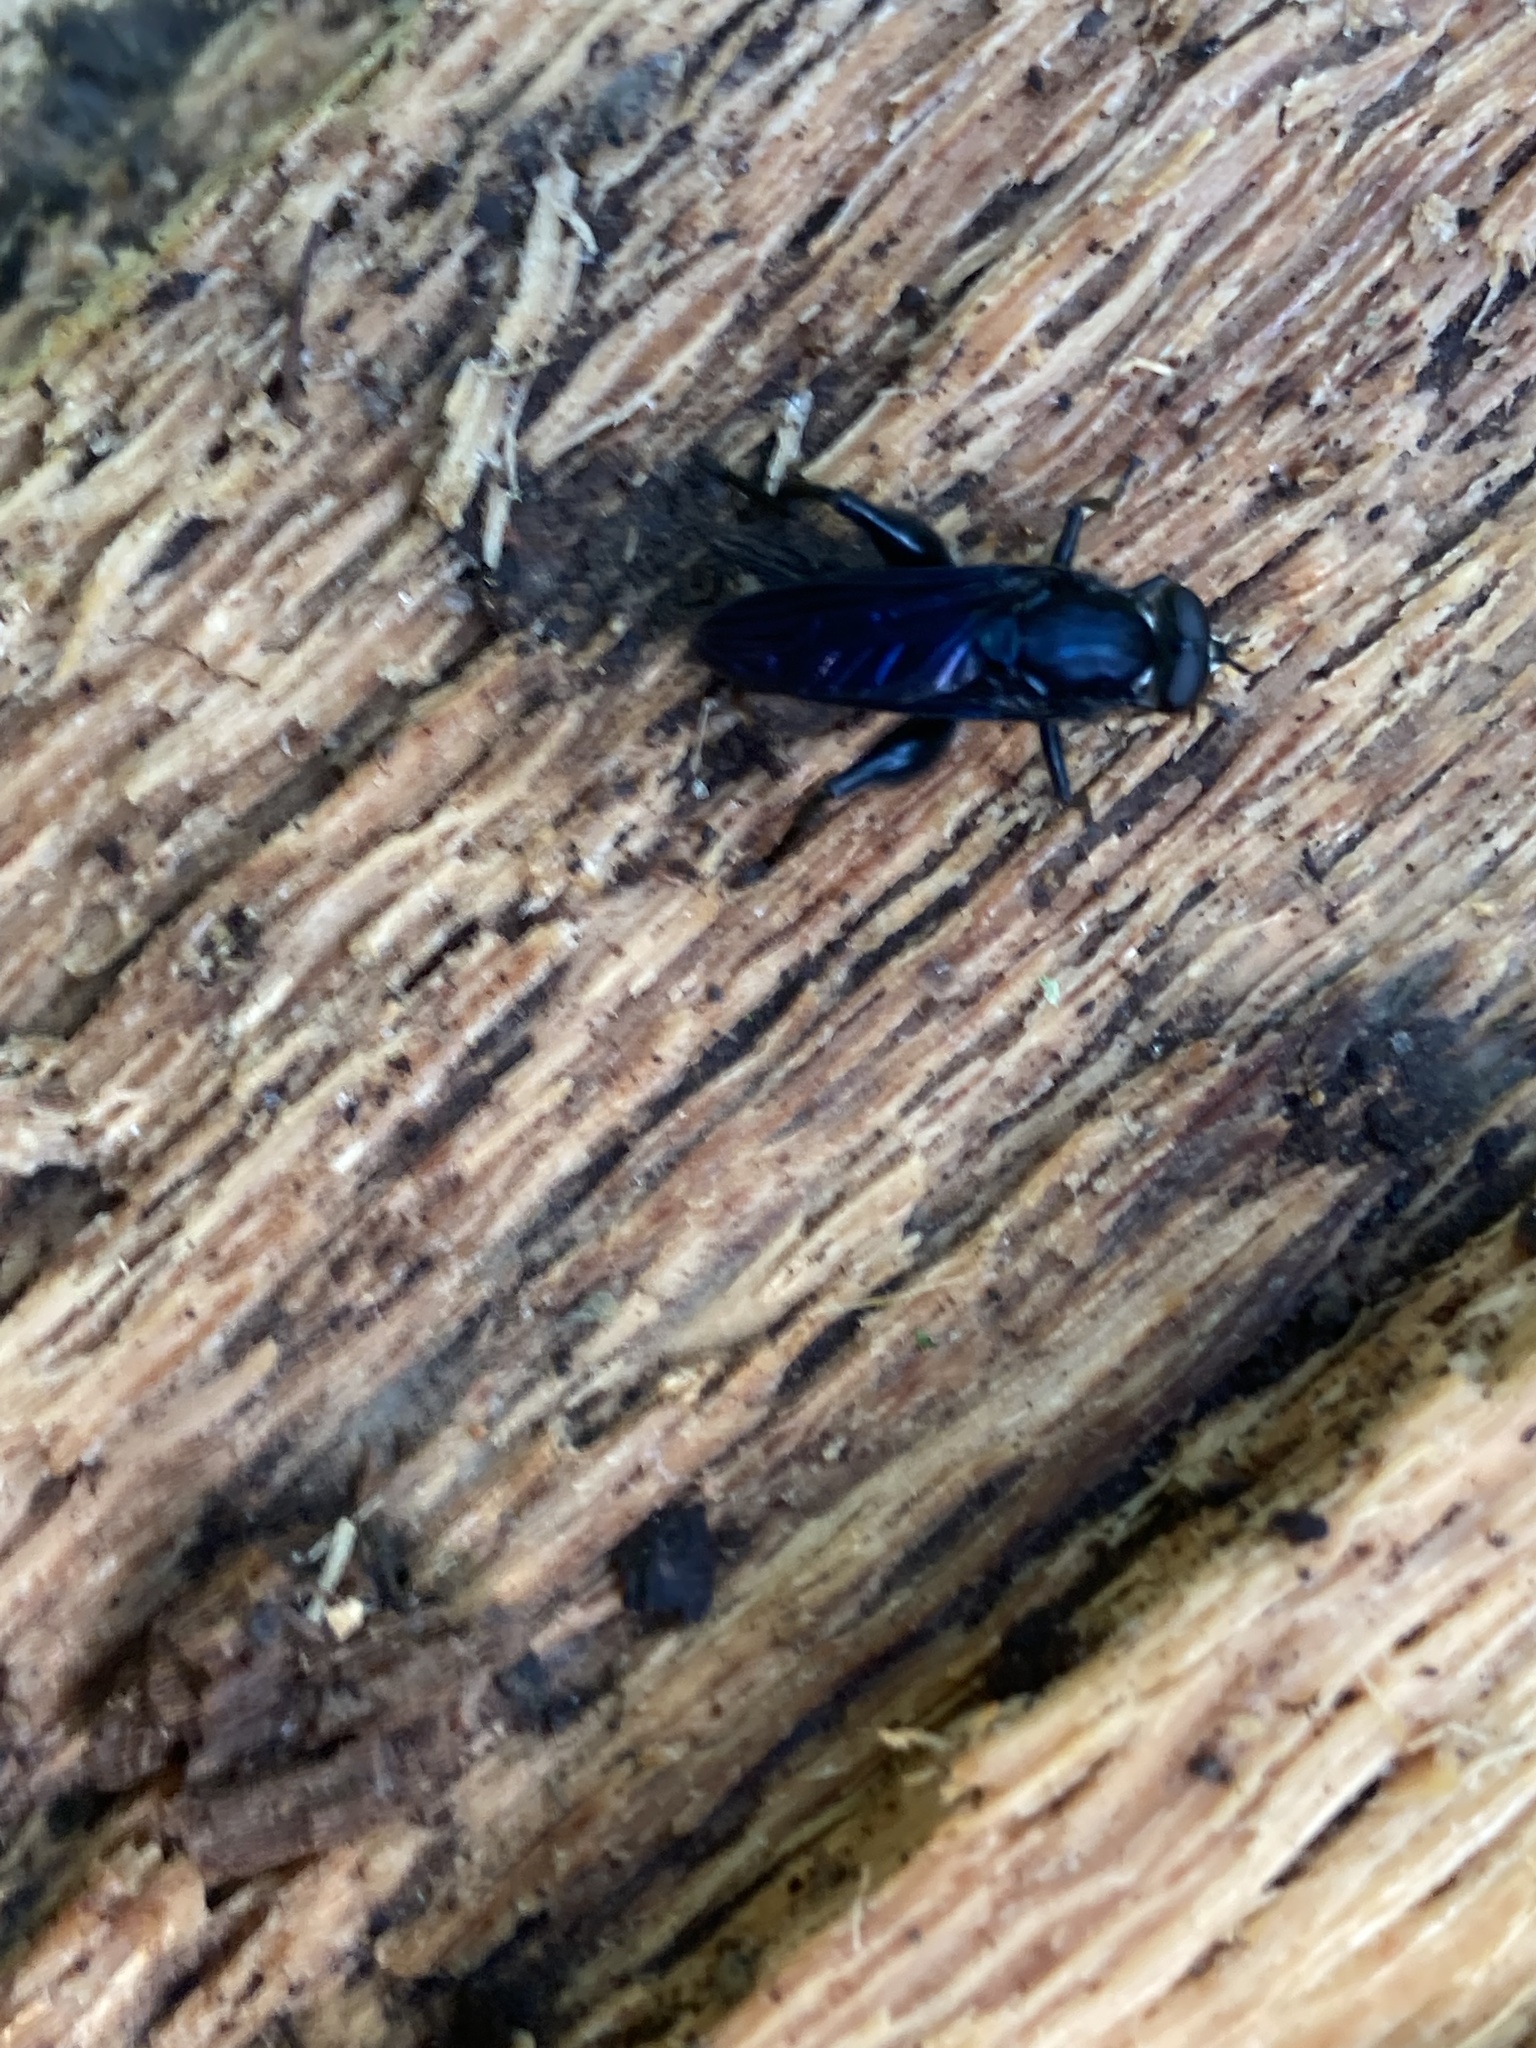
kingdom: Animalia
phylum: Arthropoda
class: Insecta
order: Diptera
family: Syrphidae
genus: Chalcosyrphus
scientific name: Chalcosyrphus chalybeus
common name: Violet leafwalker
